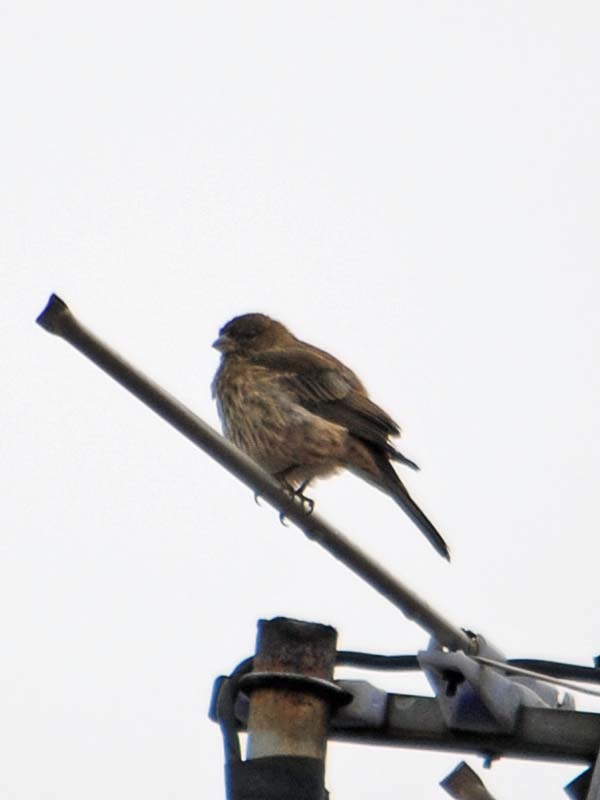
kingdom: Animalia
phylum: Chordata
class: Aves
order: Passeriformes
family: Fringillidae
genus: Haemorhous
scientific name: Haemorhous mexicanus
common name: House finch
